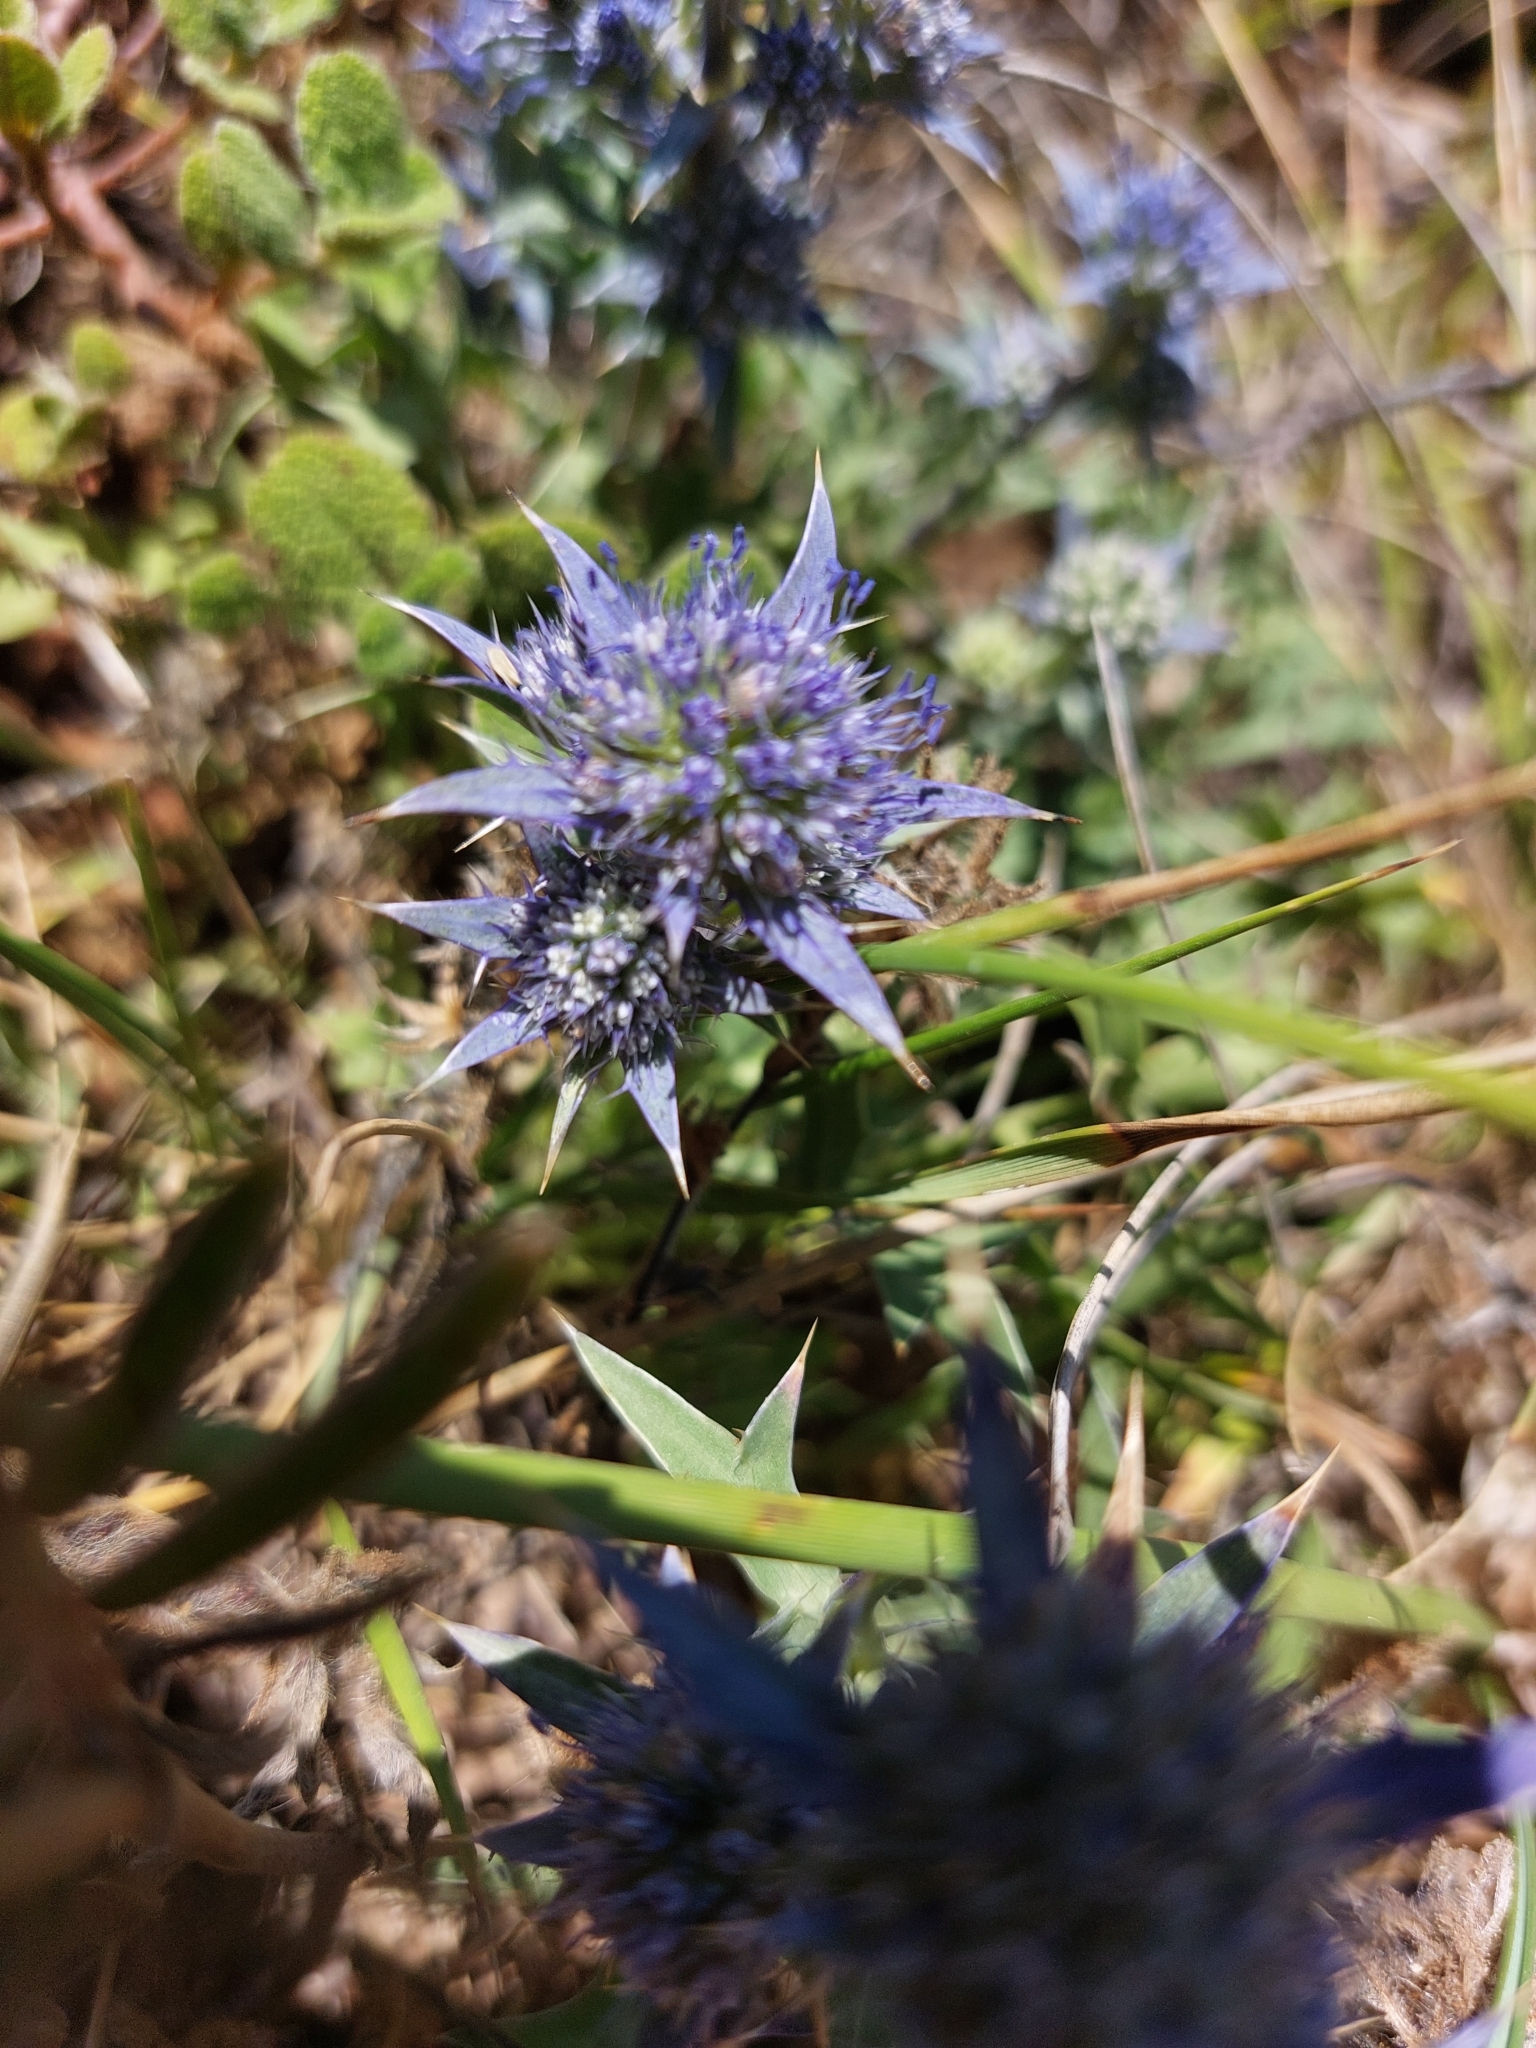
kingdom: Plantae
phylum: Tracheophyta
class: Magnoliopsida
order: Apiales
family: Apiaceae
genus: Eryngium
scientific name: Eryngium dilatatum
